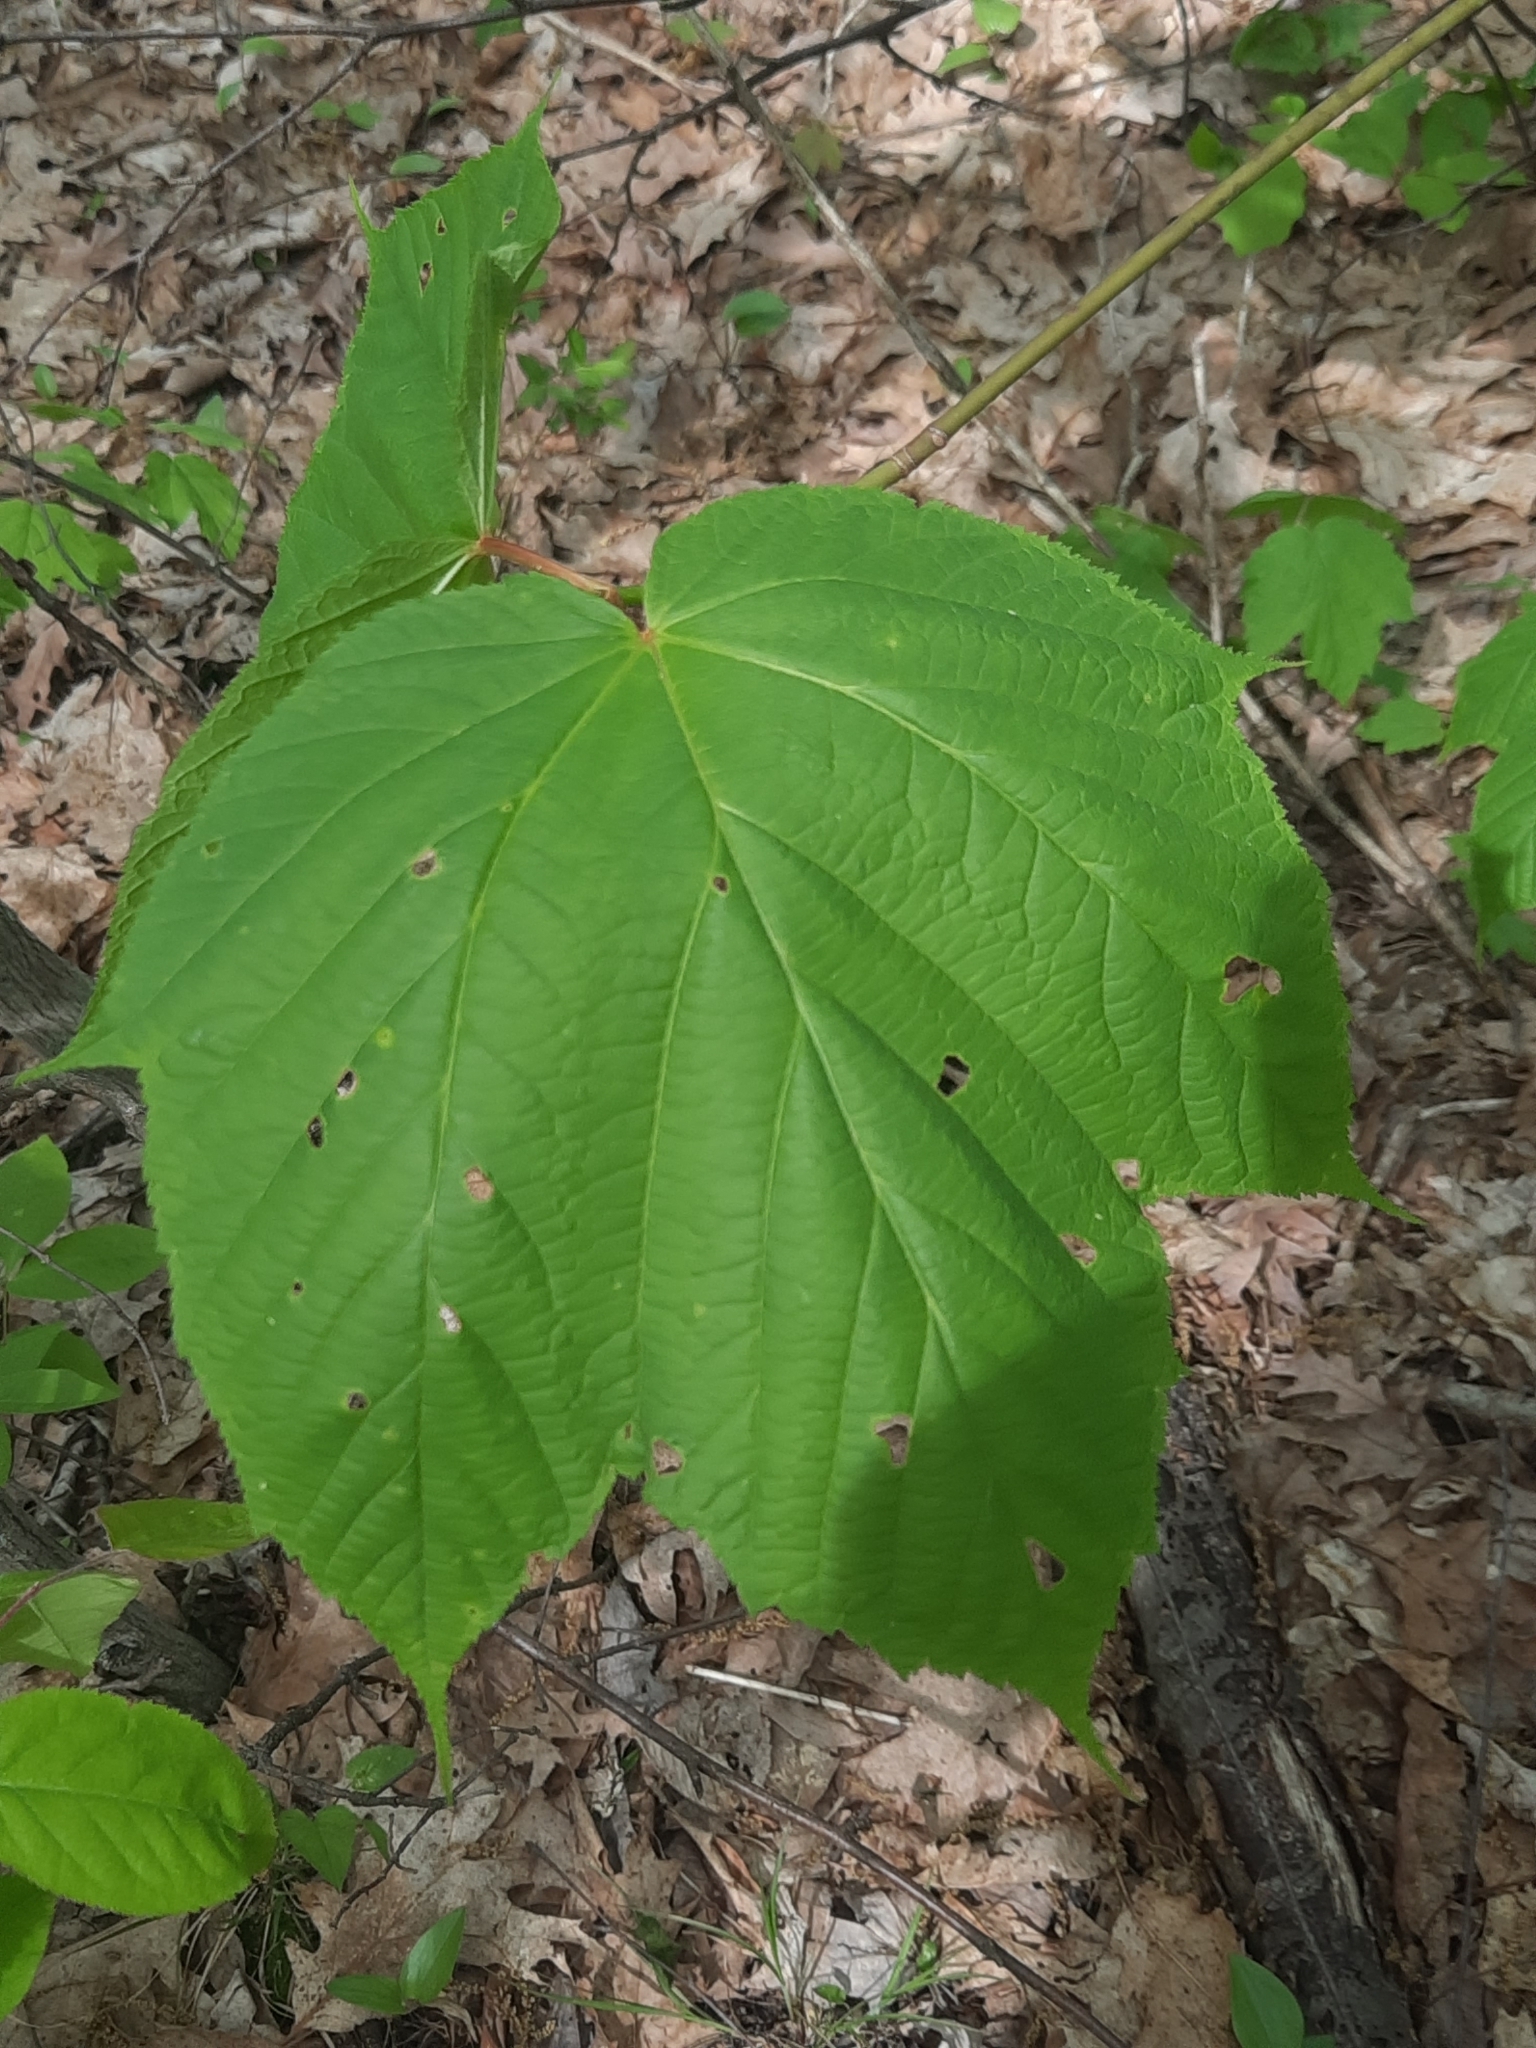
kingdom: Plantae
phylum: Tracheophyta
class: Magnoliopsida
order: Sapindales
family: Sapindaceae
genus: Acer
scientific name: Acer pensylvanicum
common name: Moosewood
